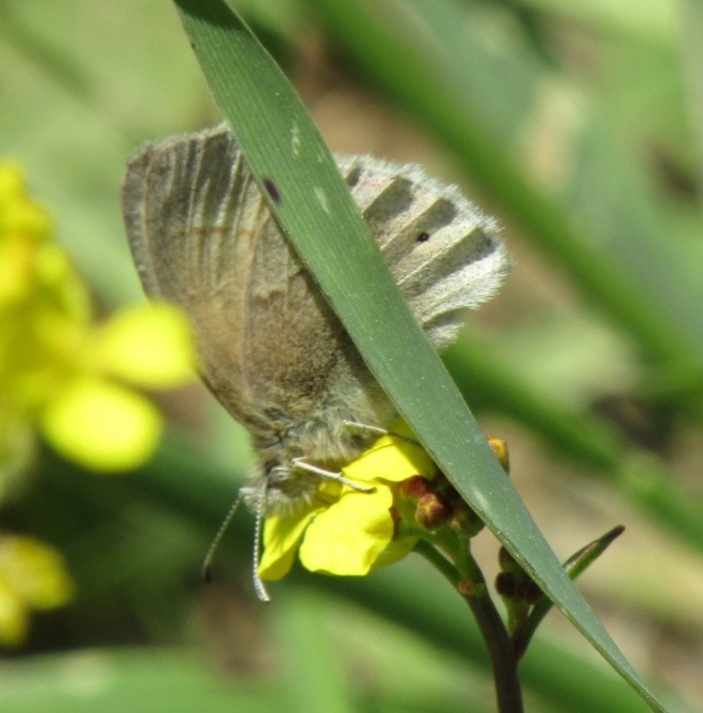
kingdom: Animalia
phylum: Arthropoda
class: Insecta
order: Lepidoptera
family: Nymphalidae
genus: Coenonympha
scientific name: Coenonympha california
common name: Common ringlet
